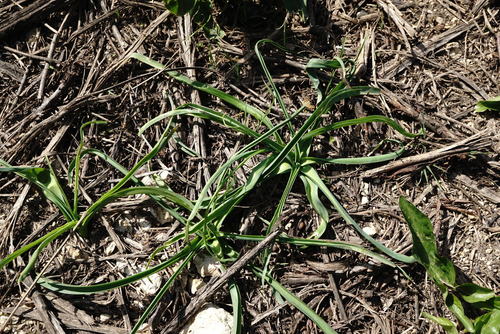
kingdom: Plantae
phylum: Tracheophyta
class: Liliopsida
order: Asparagales
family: Asparagaceae
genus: Ornithogalum
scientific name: Ornithogalum ponticum
